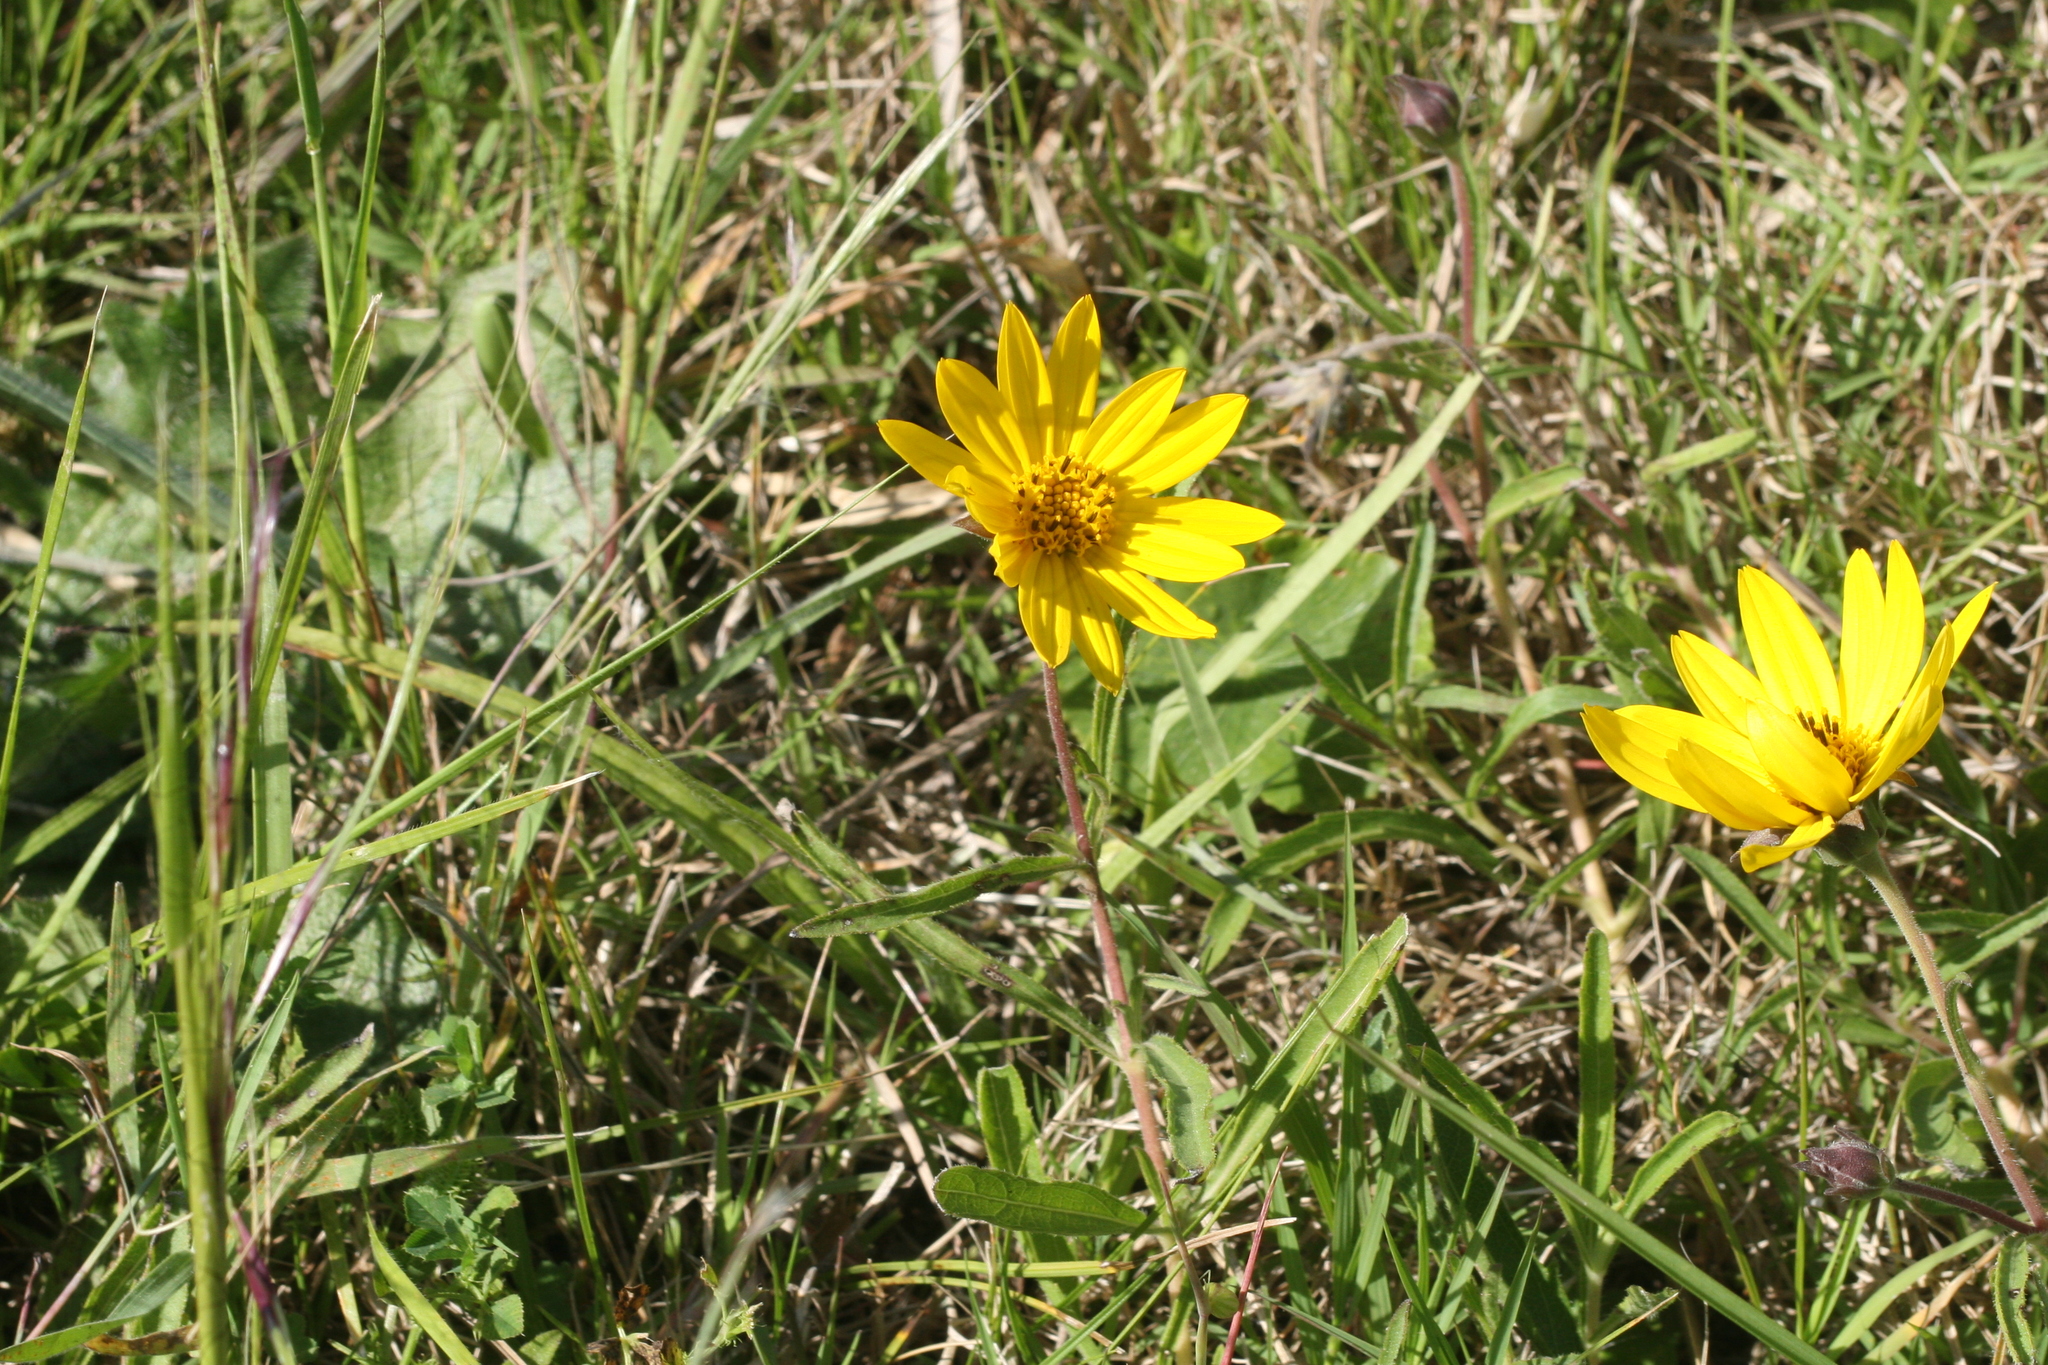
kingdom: Plantae
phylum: Tracheophyta
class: Magnoliopsida
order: Asterales
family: Asteraceae
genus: Wedelia
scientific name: Wedelia montevidensis
